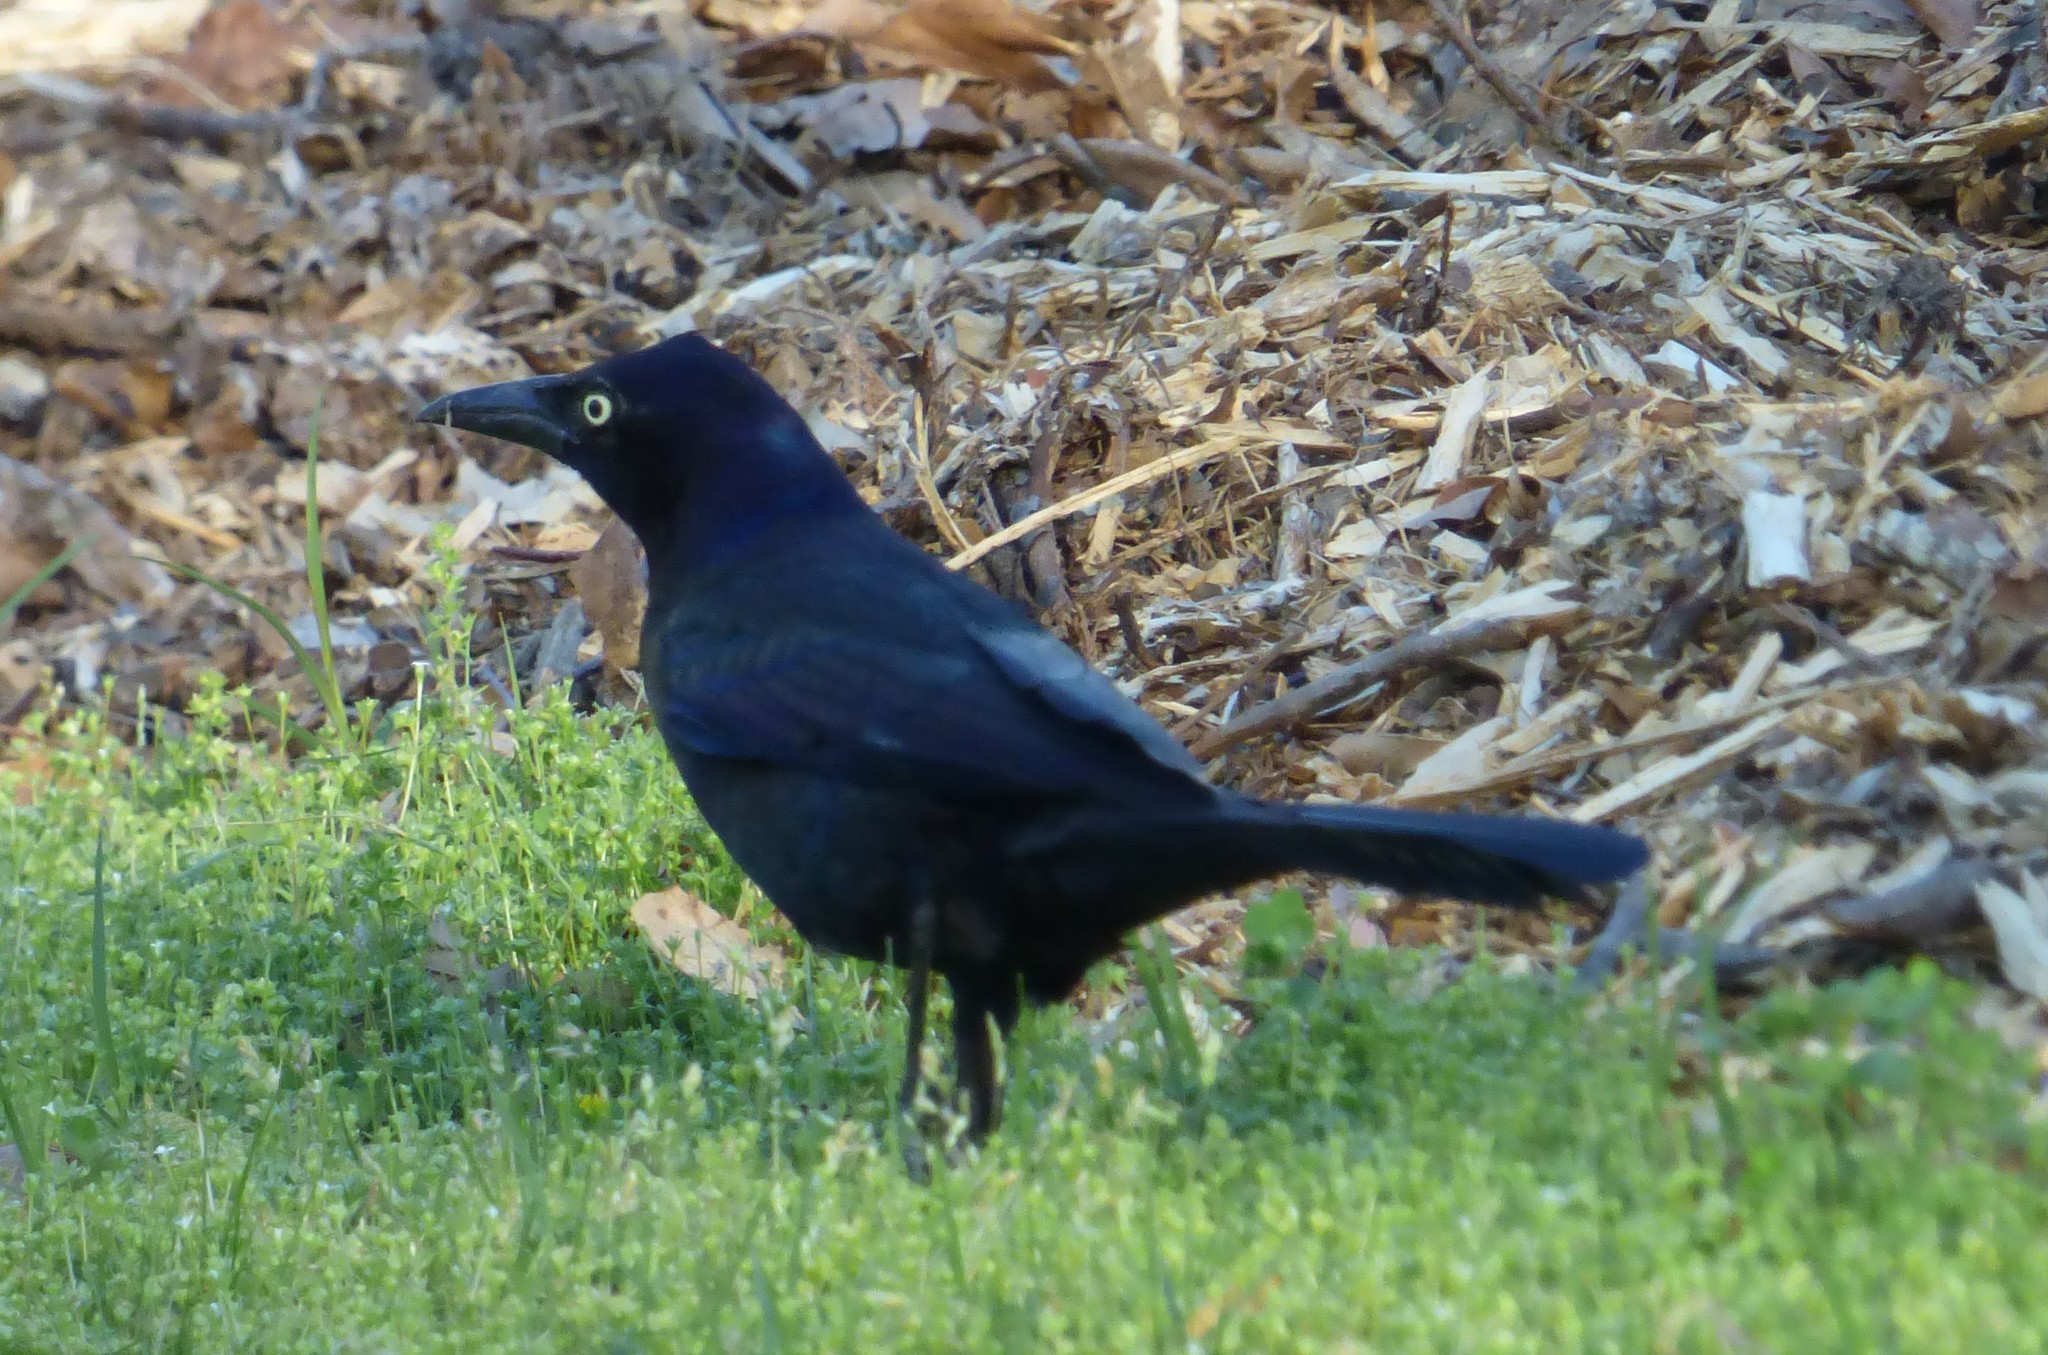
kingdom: Animalia
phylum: Chordata
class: Aves
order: Passeriformes
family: Icteridae
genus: Quiscalus
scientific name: Quiscalus quiscula
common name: Common grackle
